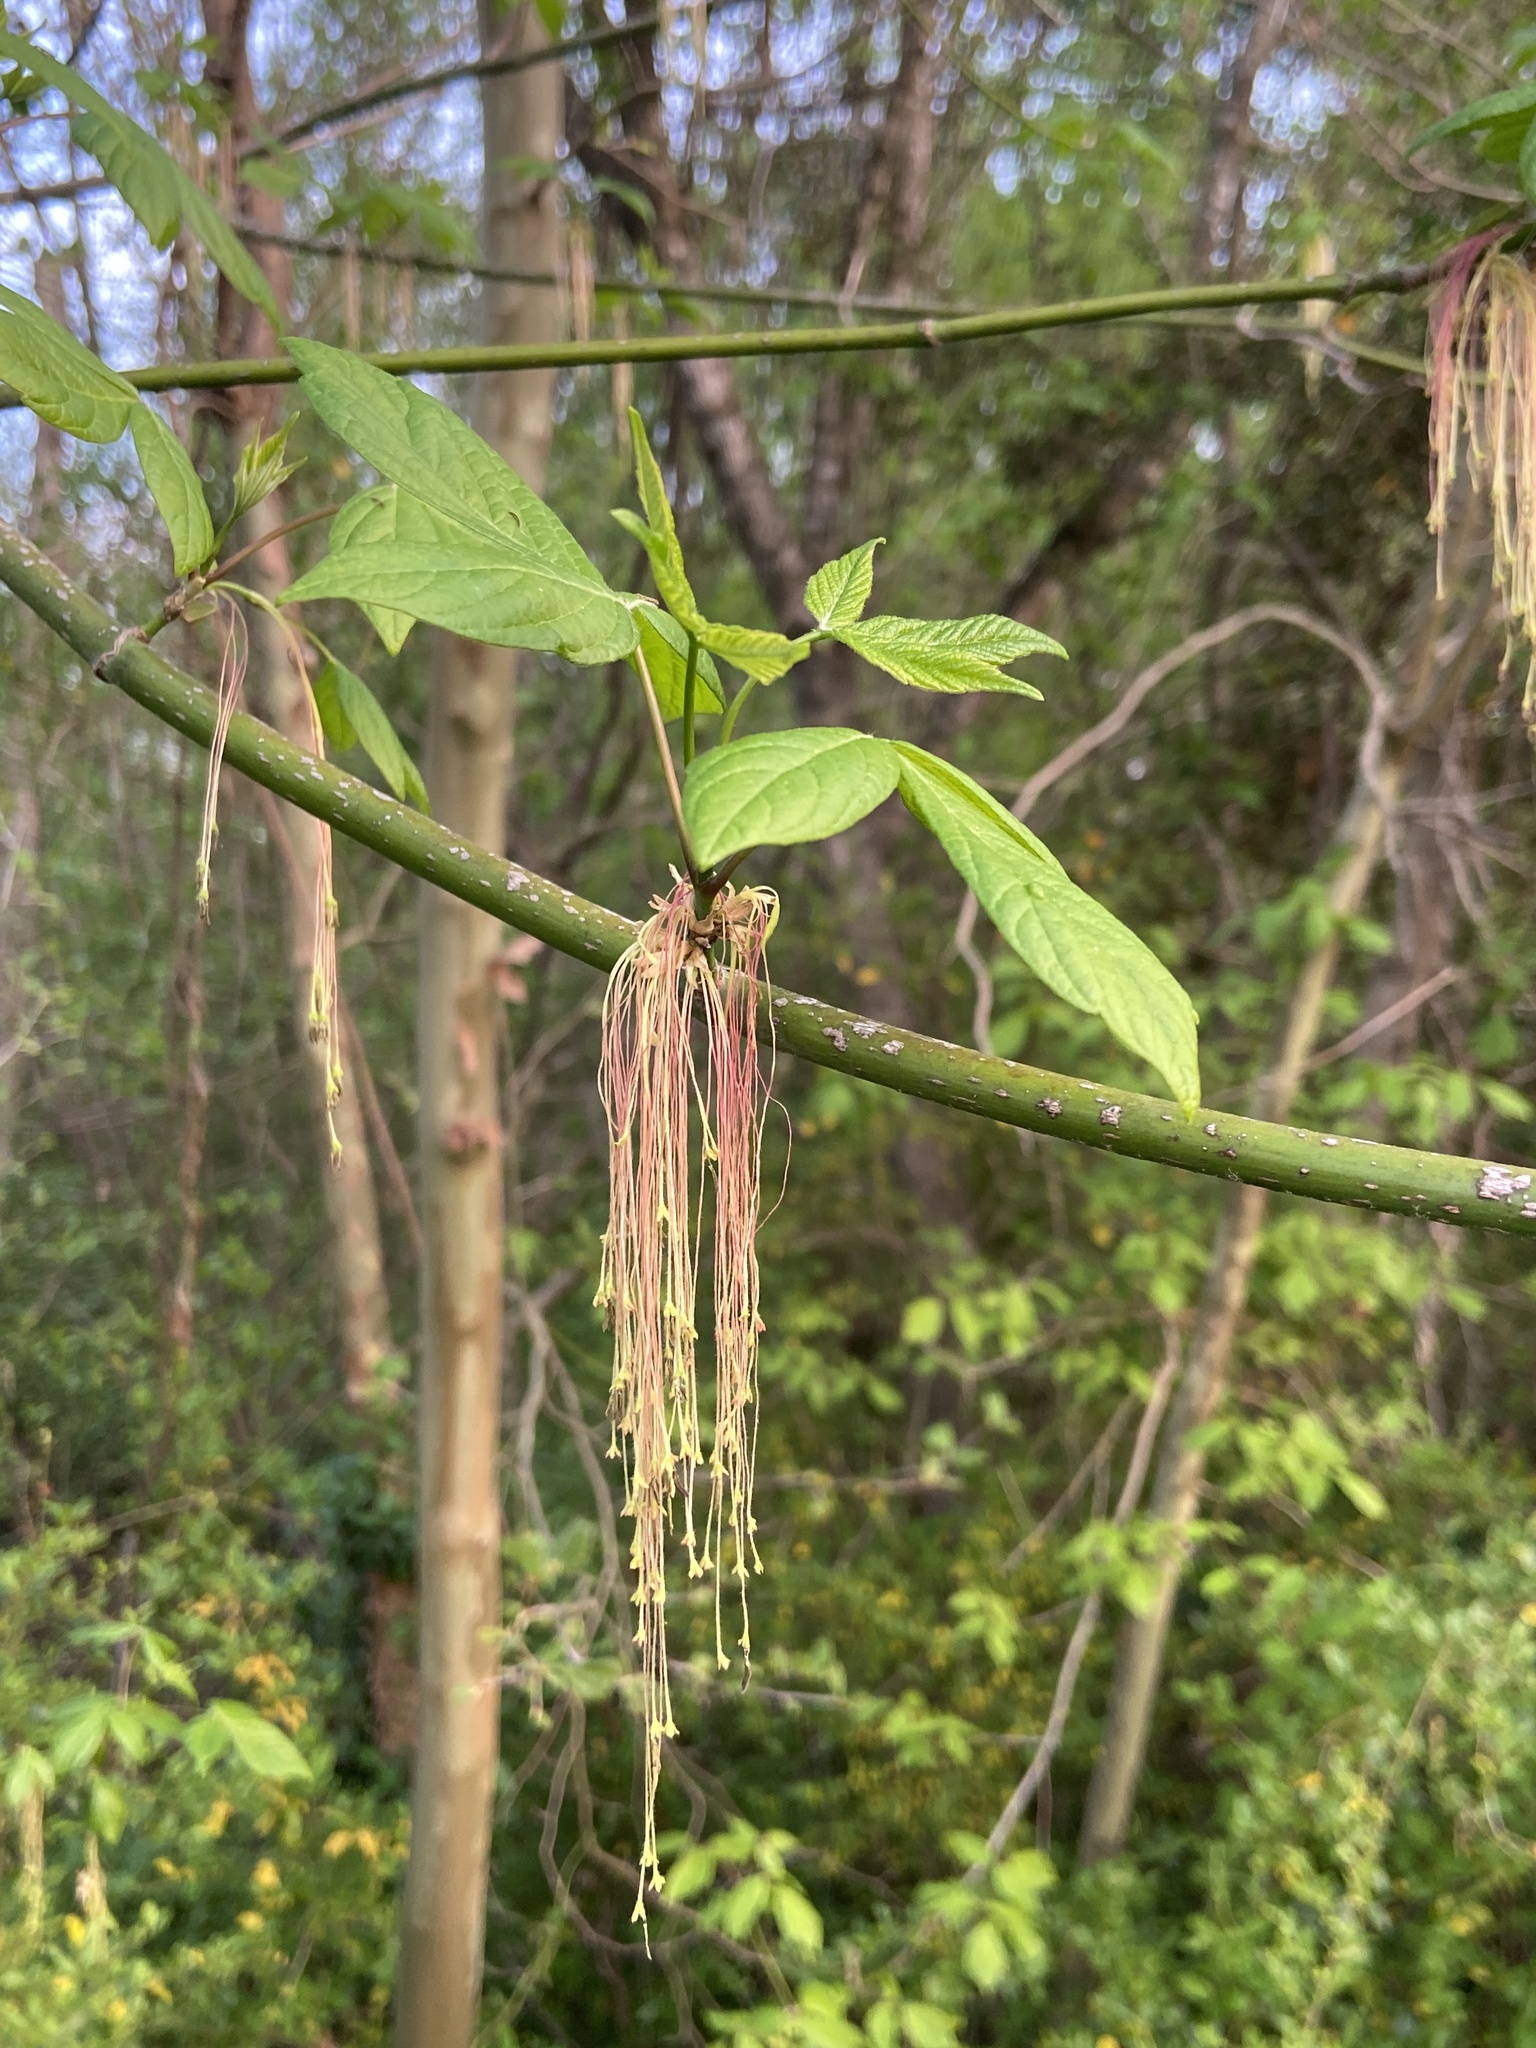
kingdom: Plantae
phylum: Tracheophyta
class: Magnoliopsida
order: Sapindales
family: Sapindaceae
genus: Acer
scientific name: Acer negundo
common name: Ashleaf maple
